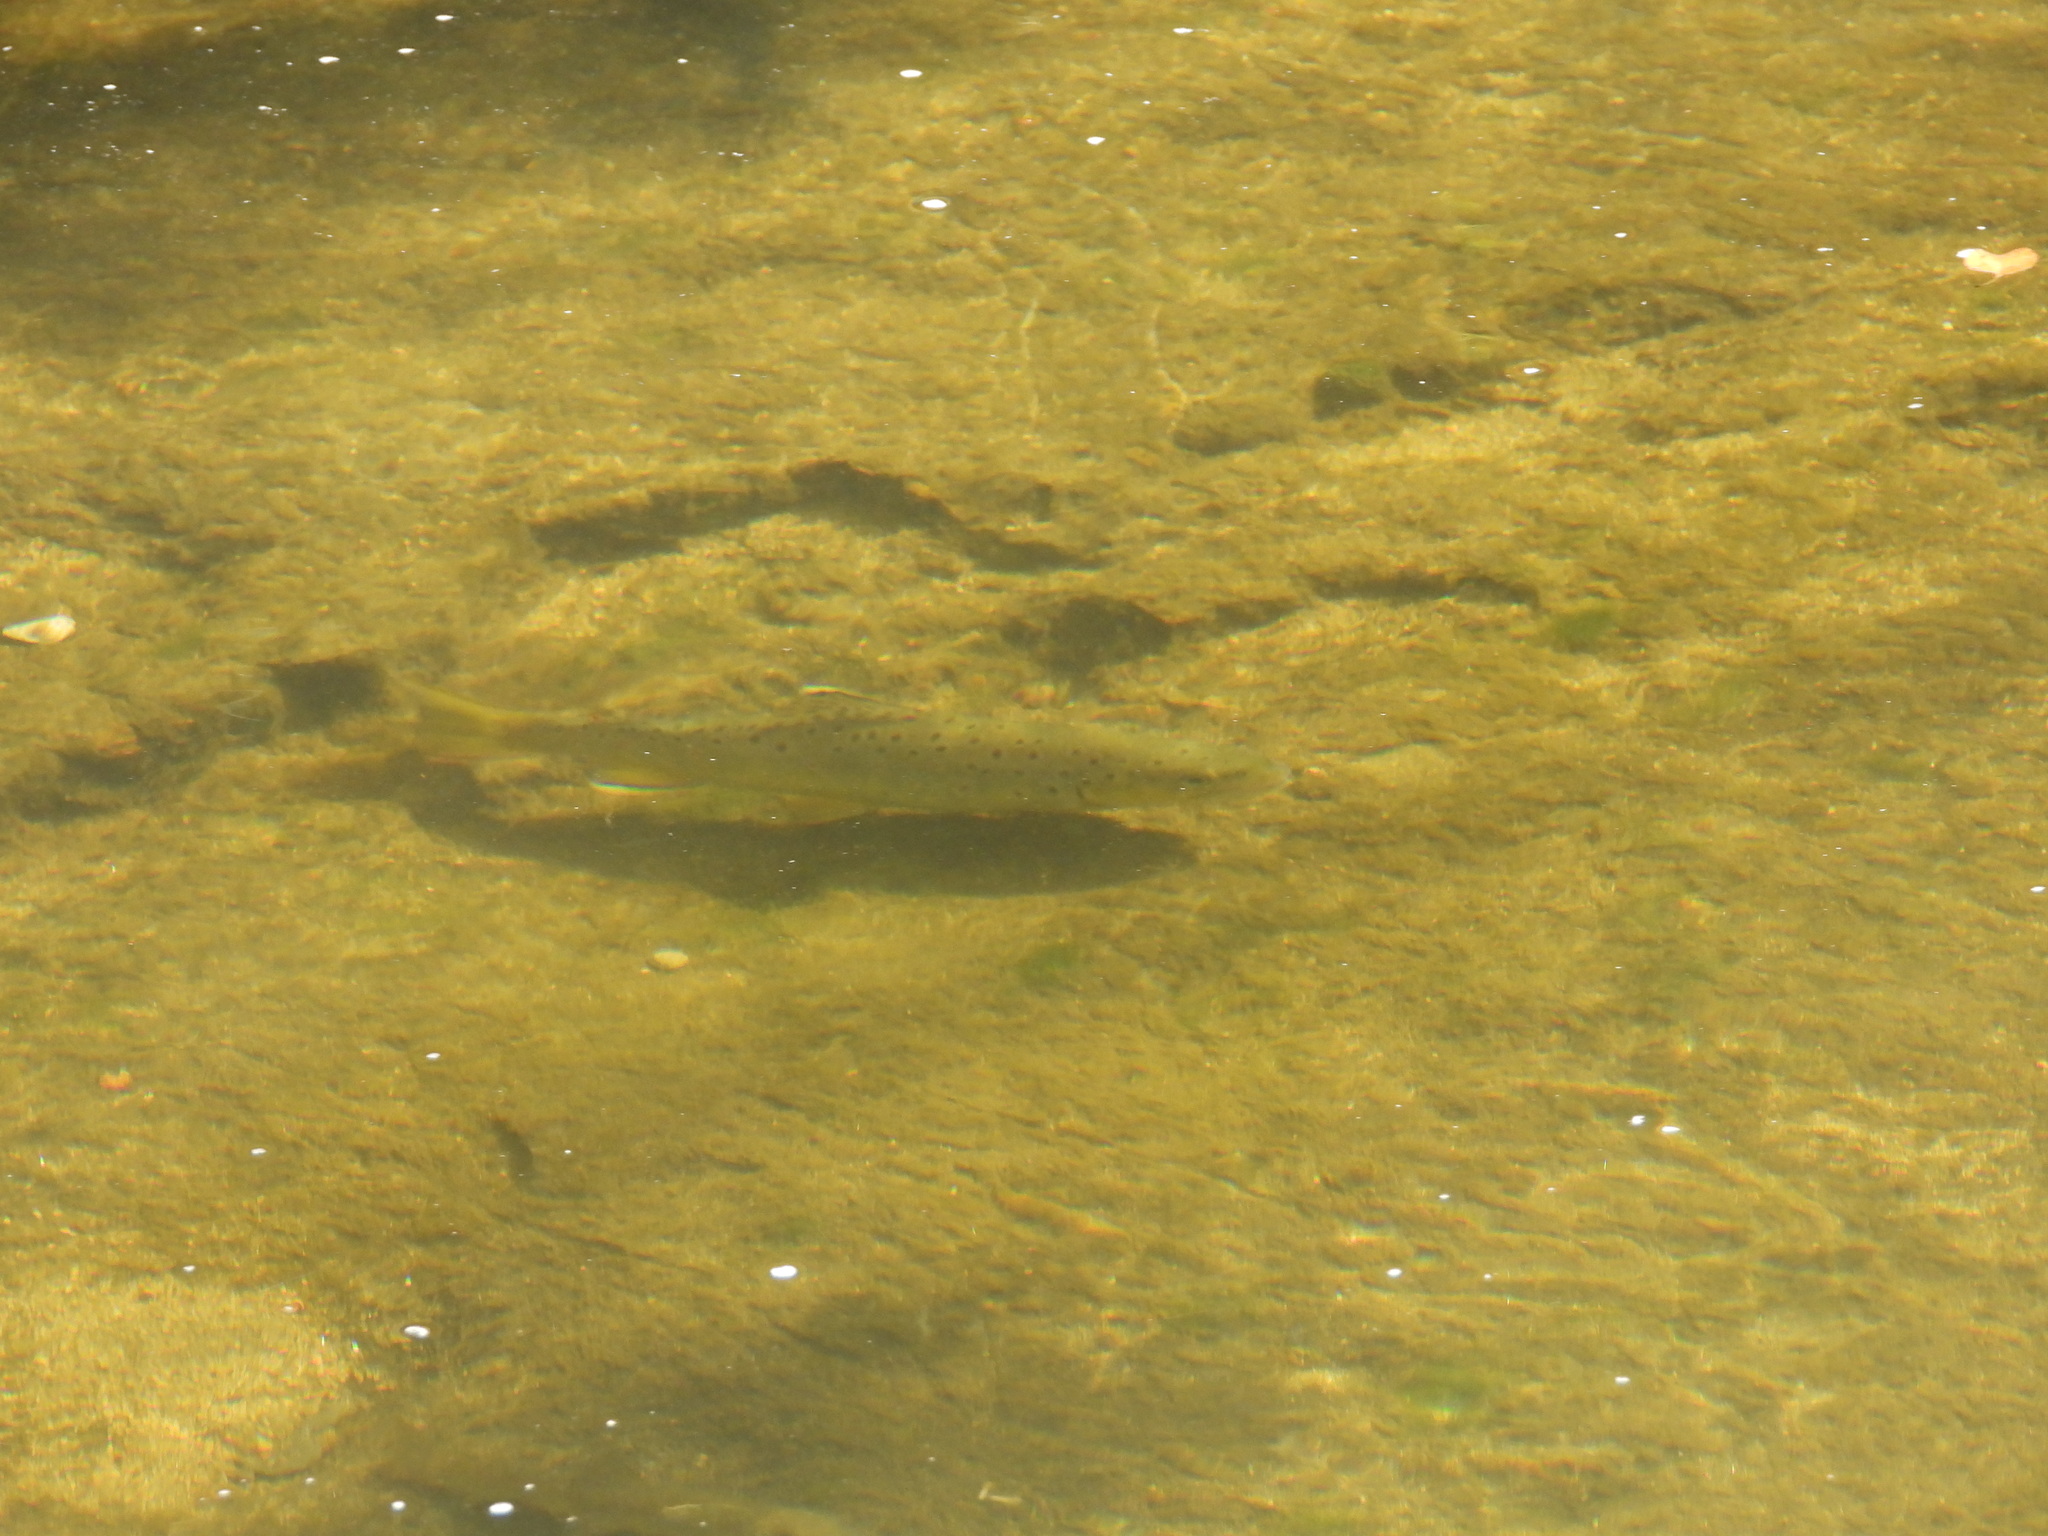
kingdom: Animalia
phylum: Chordata
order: Salmoniformes
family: Salmonidae
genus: Salmo
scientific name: Salmo trutta
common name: Brown trout
